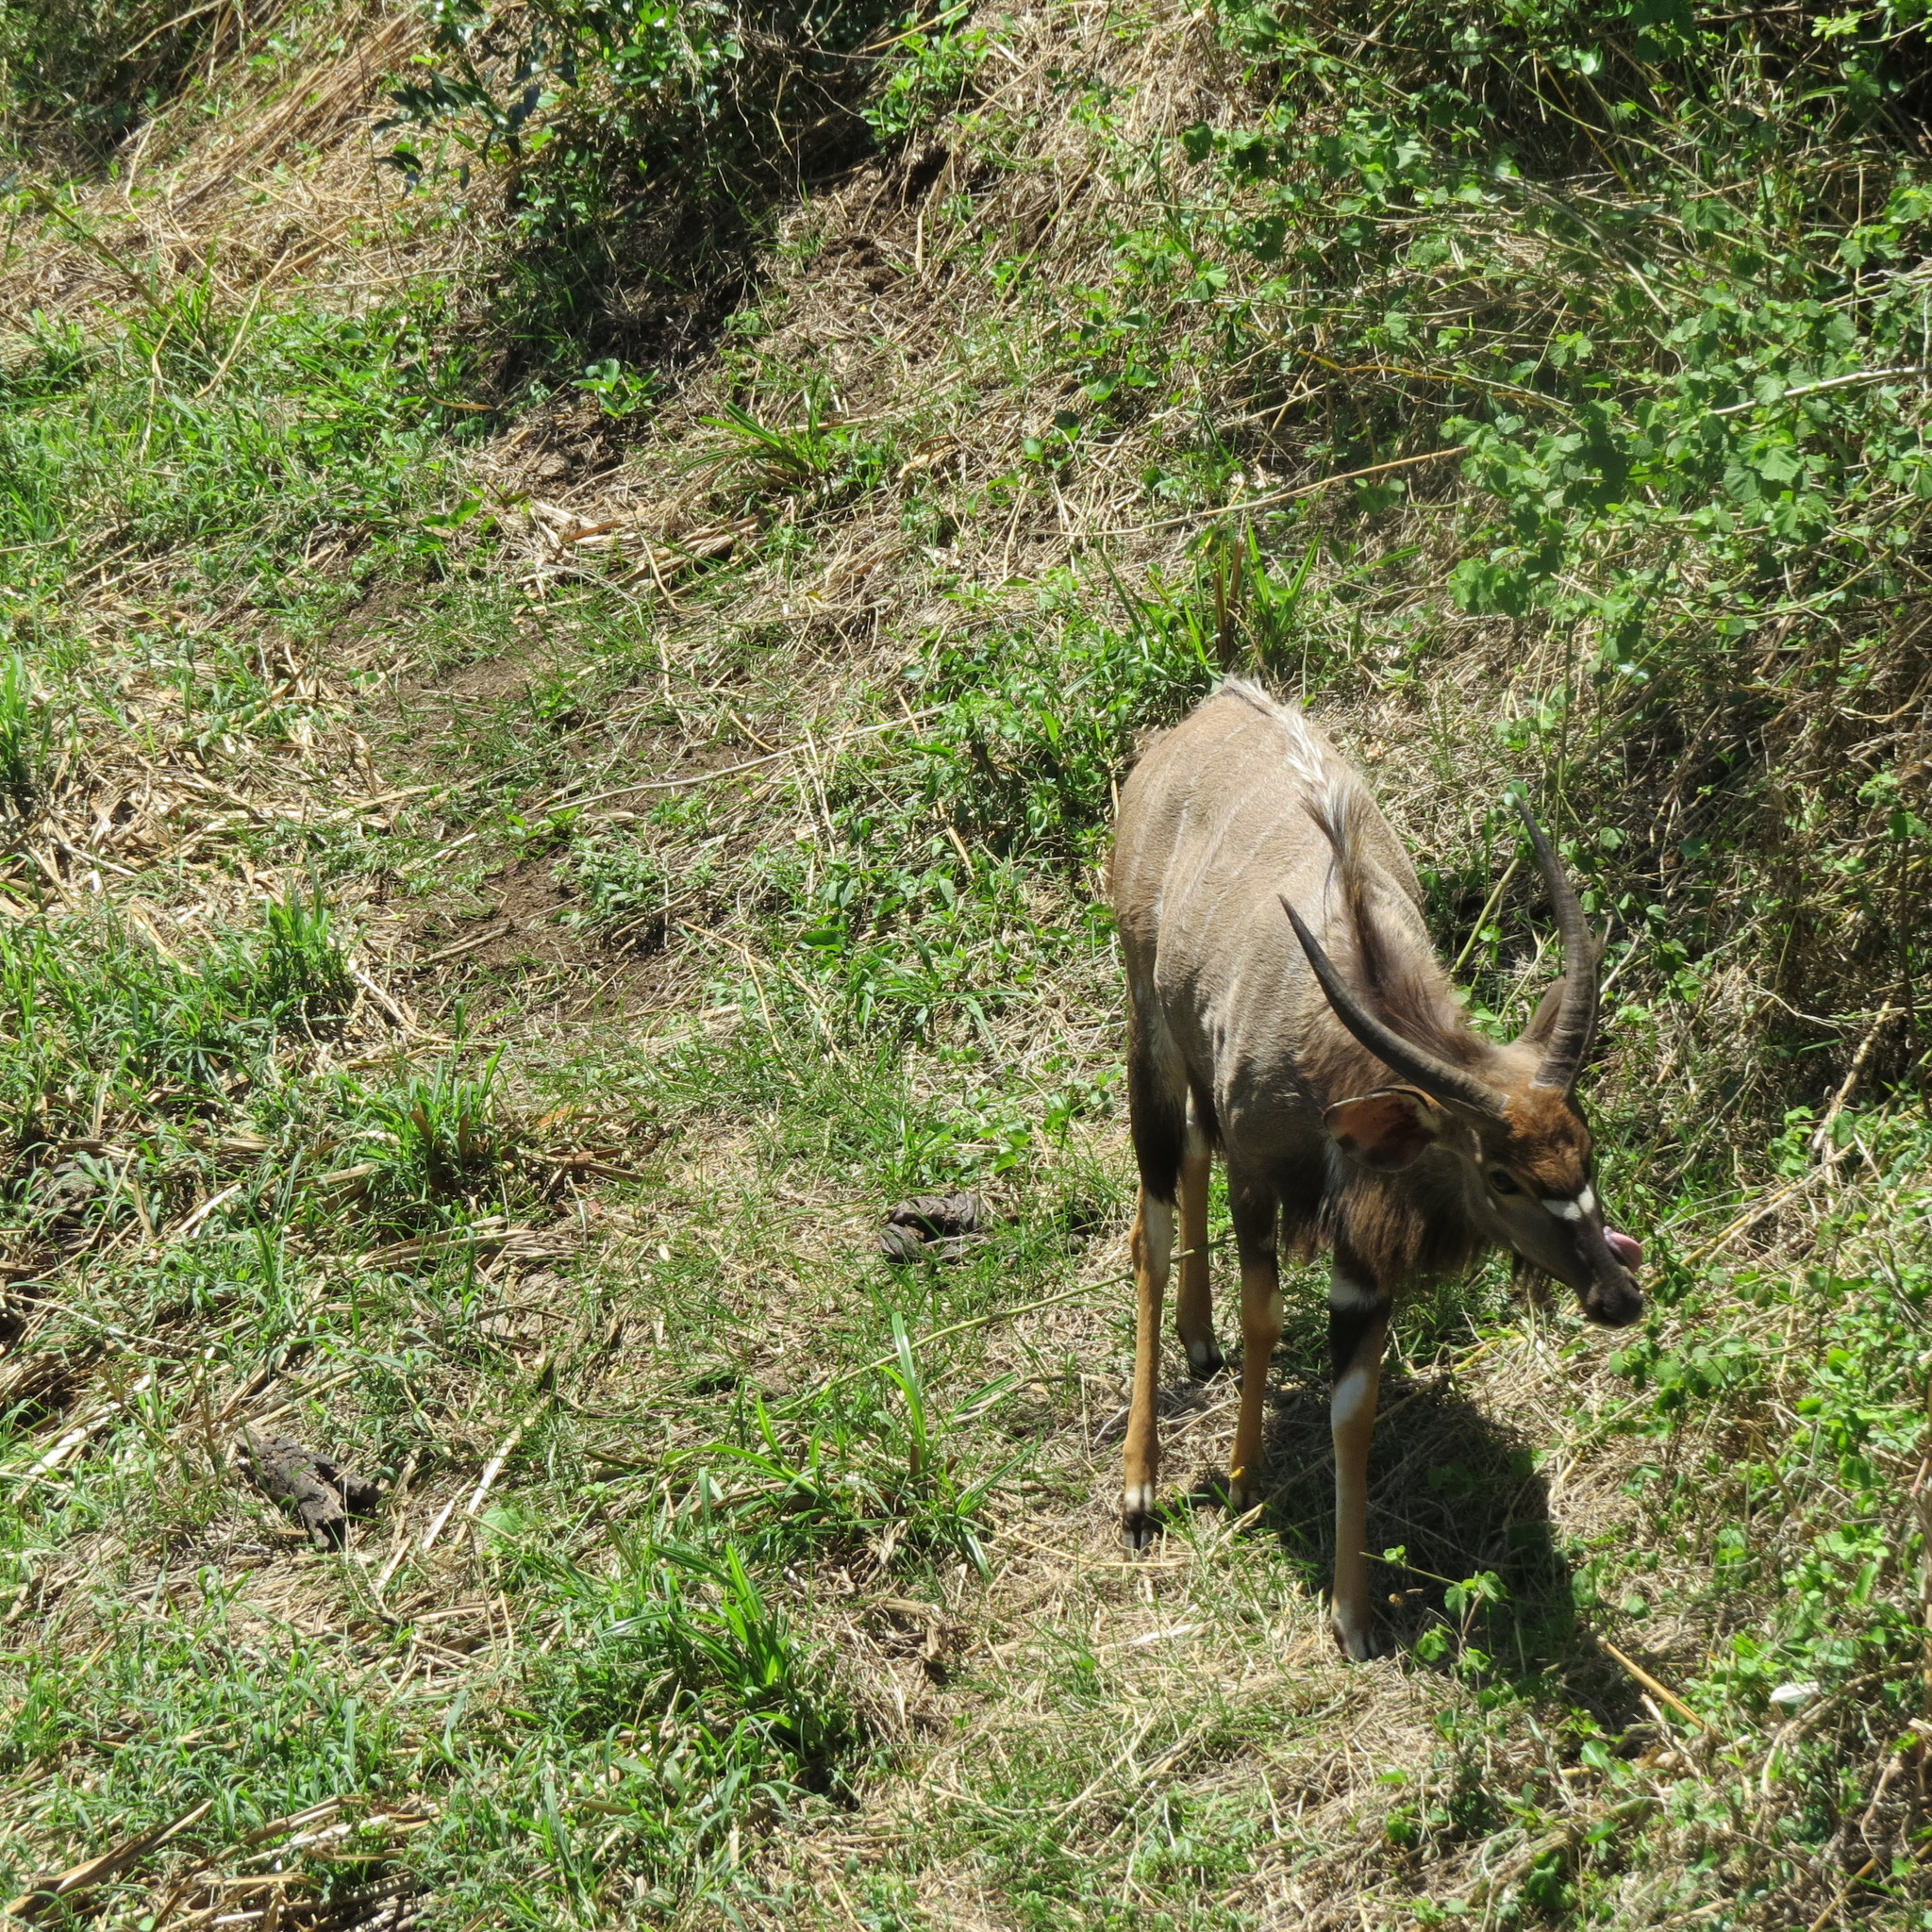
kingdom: Animalia
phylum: Chordata
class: Mammalia
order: Artiodactyla
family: Bovidae
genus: Tragelaphus
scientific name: Tragelaphus angasii
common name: Nyala
